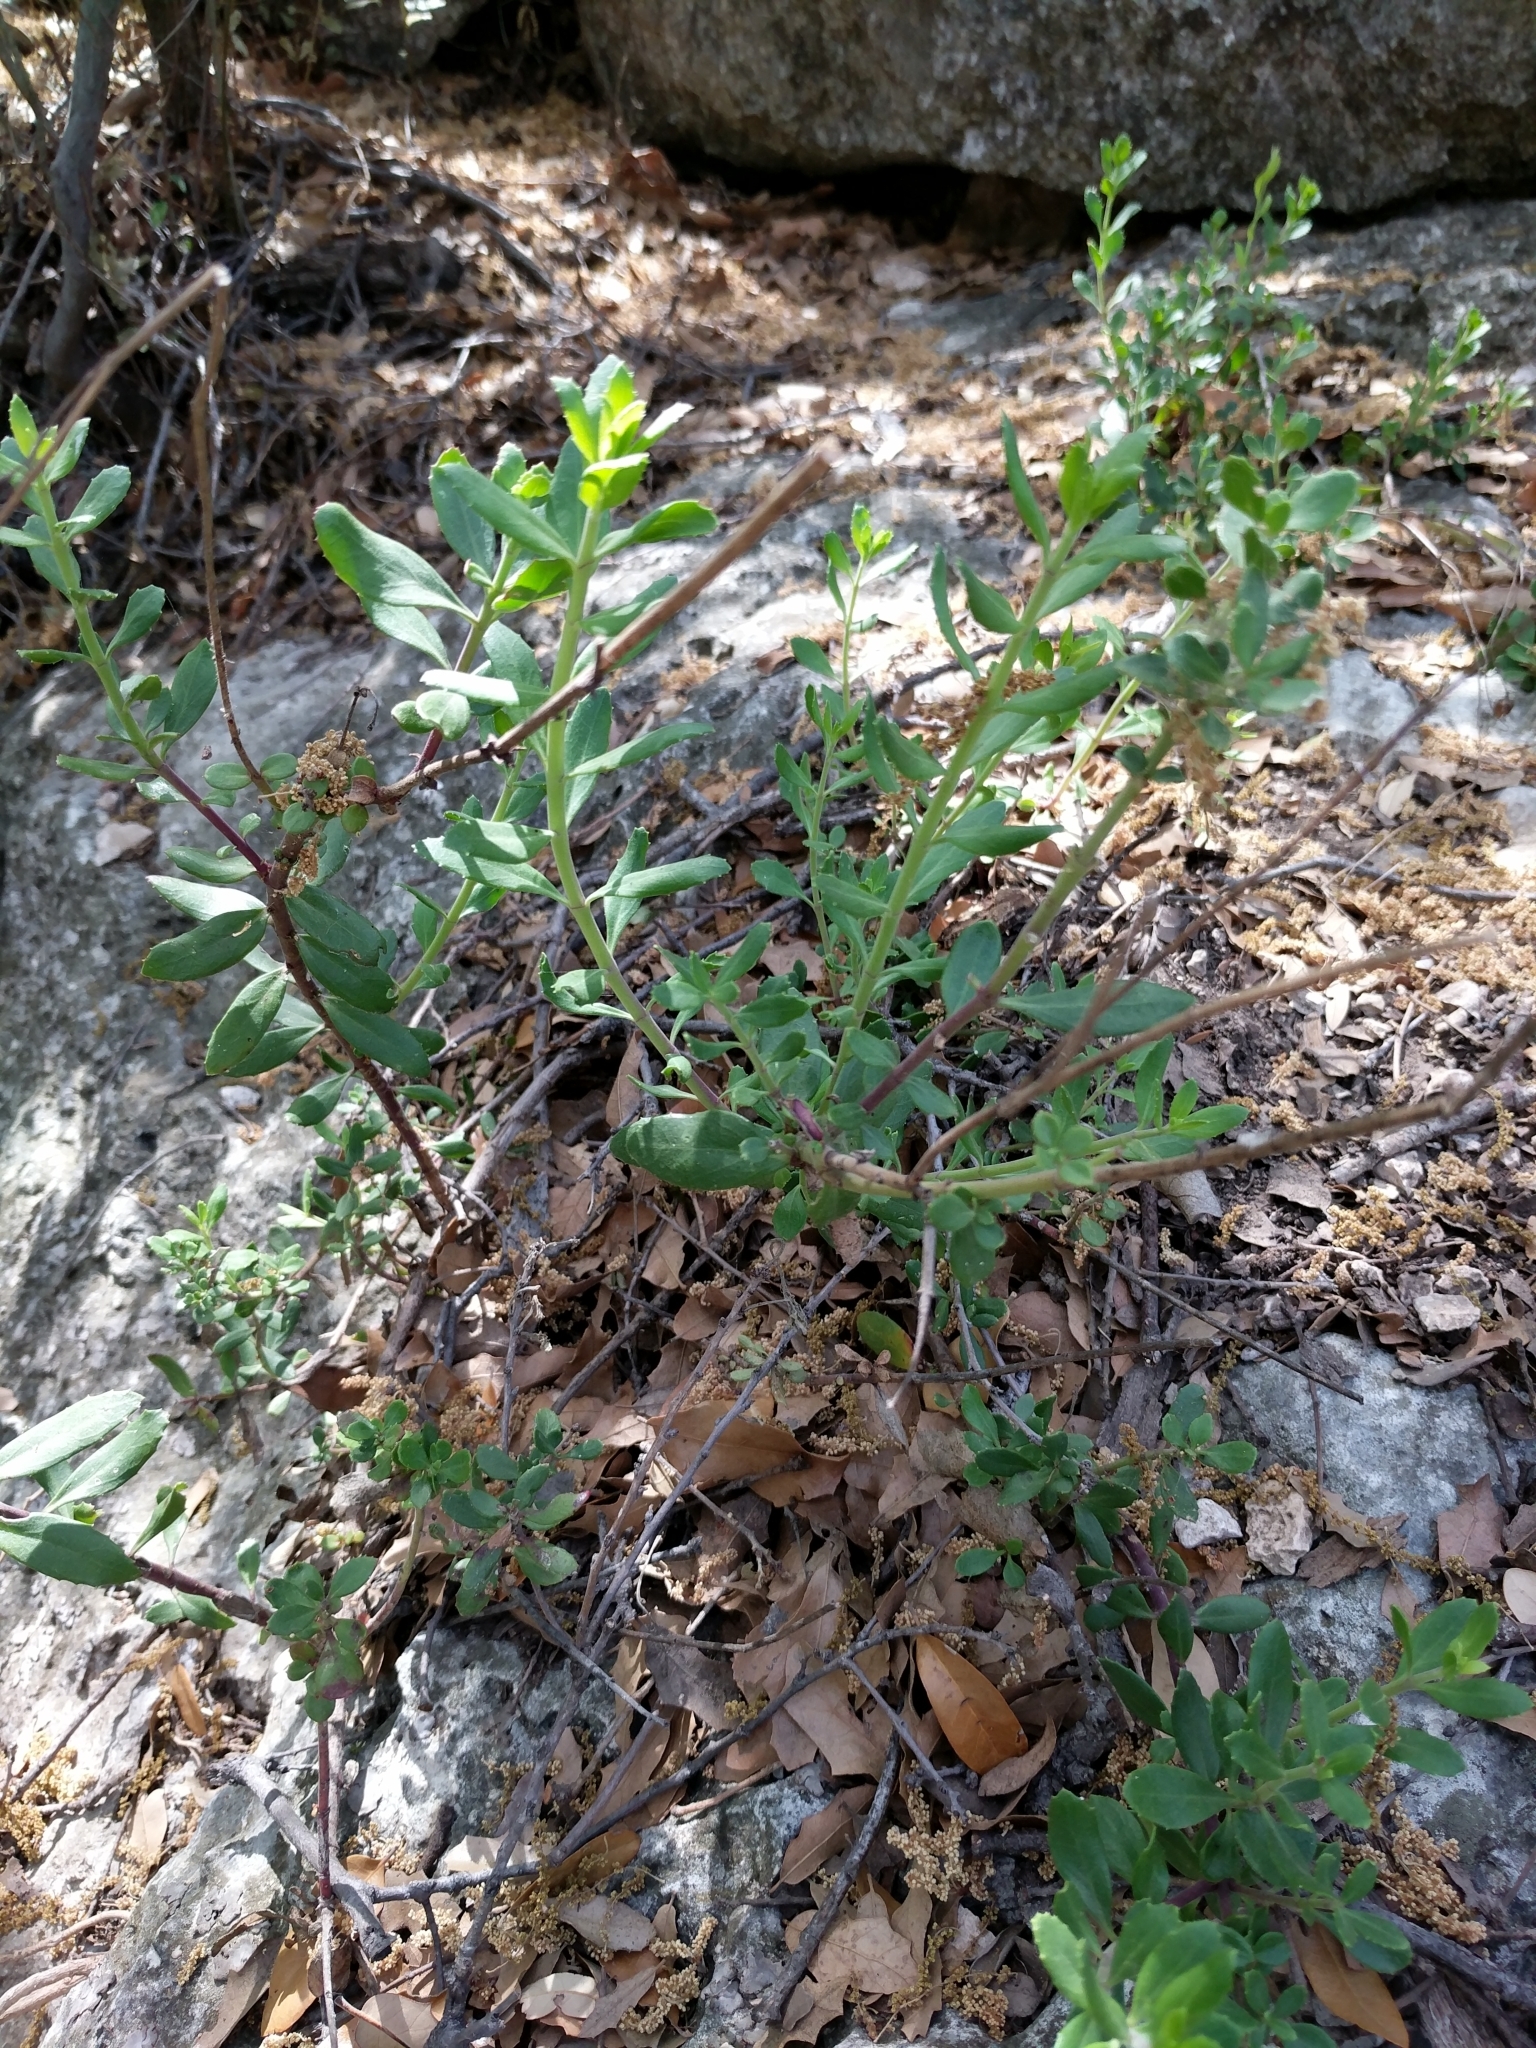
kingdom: Plantae
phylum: Tracheophyta
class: Magnoliopsida
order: Lamiales
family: Plantaginaceae
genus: Penstemon
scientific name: Penstemon baccharifolius
